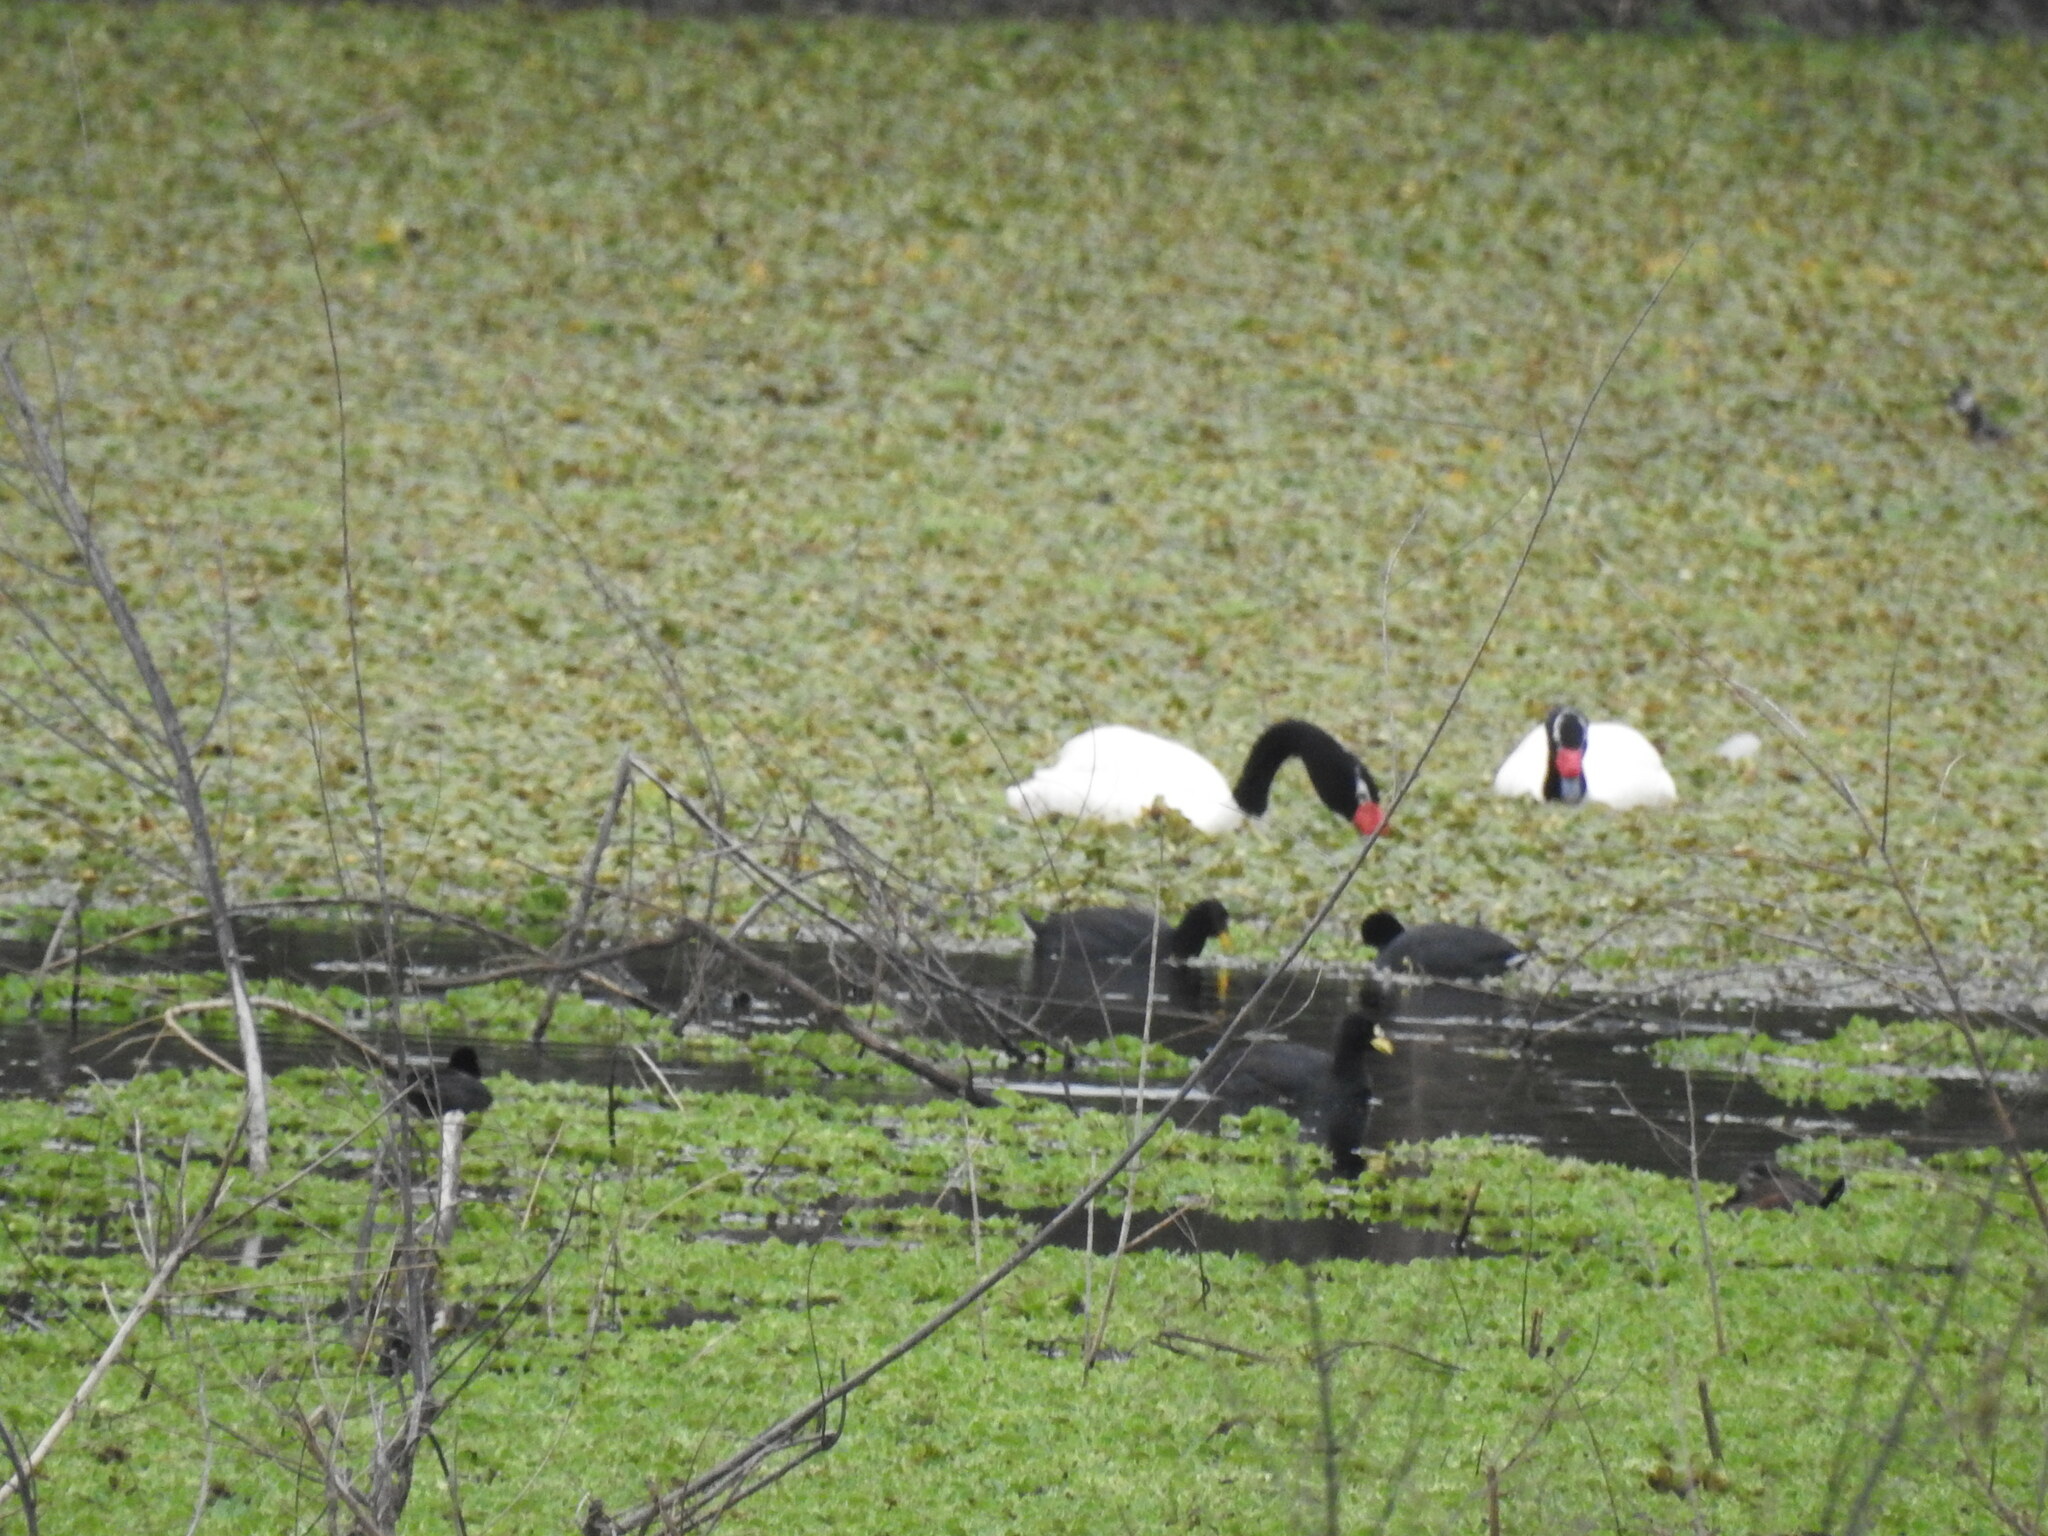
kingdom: Animalia
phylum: Chordata
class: Aves
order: Anseriformes
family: Anatidae
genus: Cygnus
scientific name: Cygnus melancoryphus
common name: Black-necked swan
